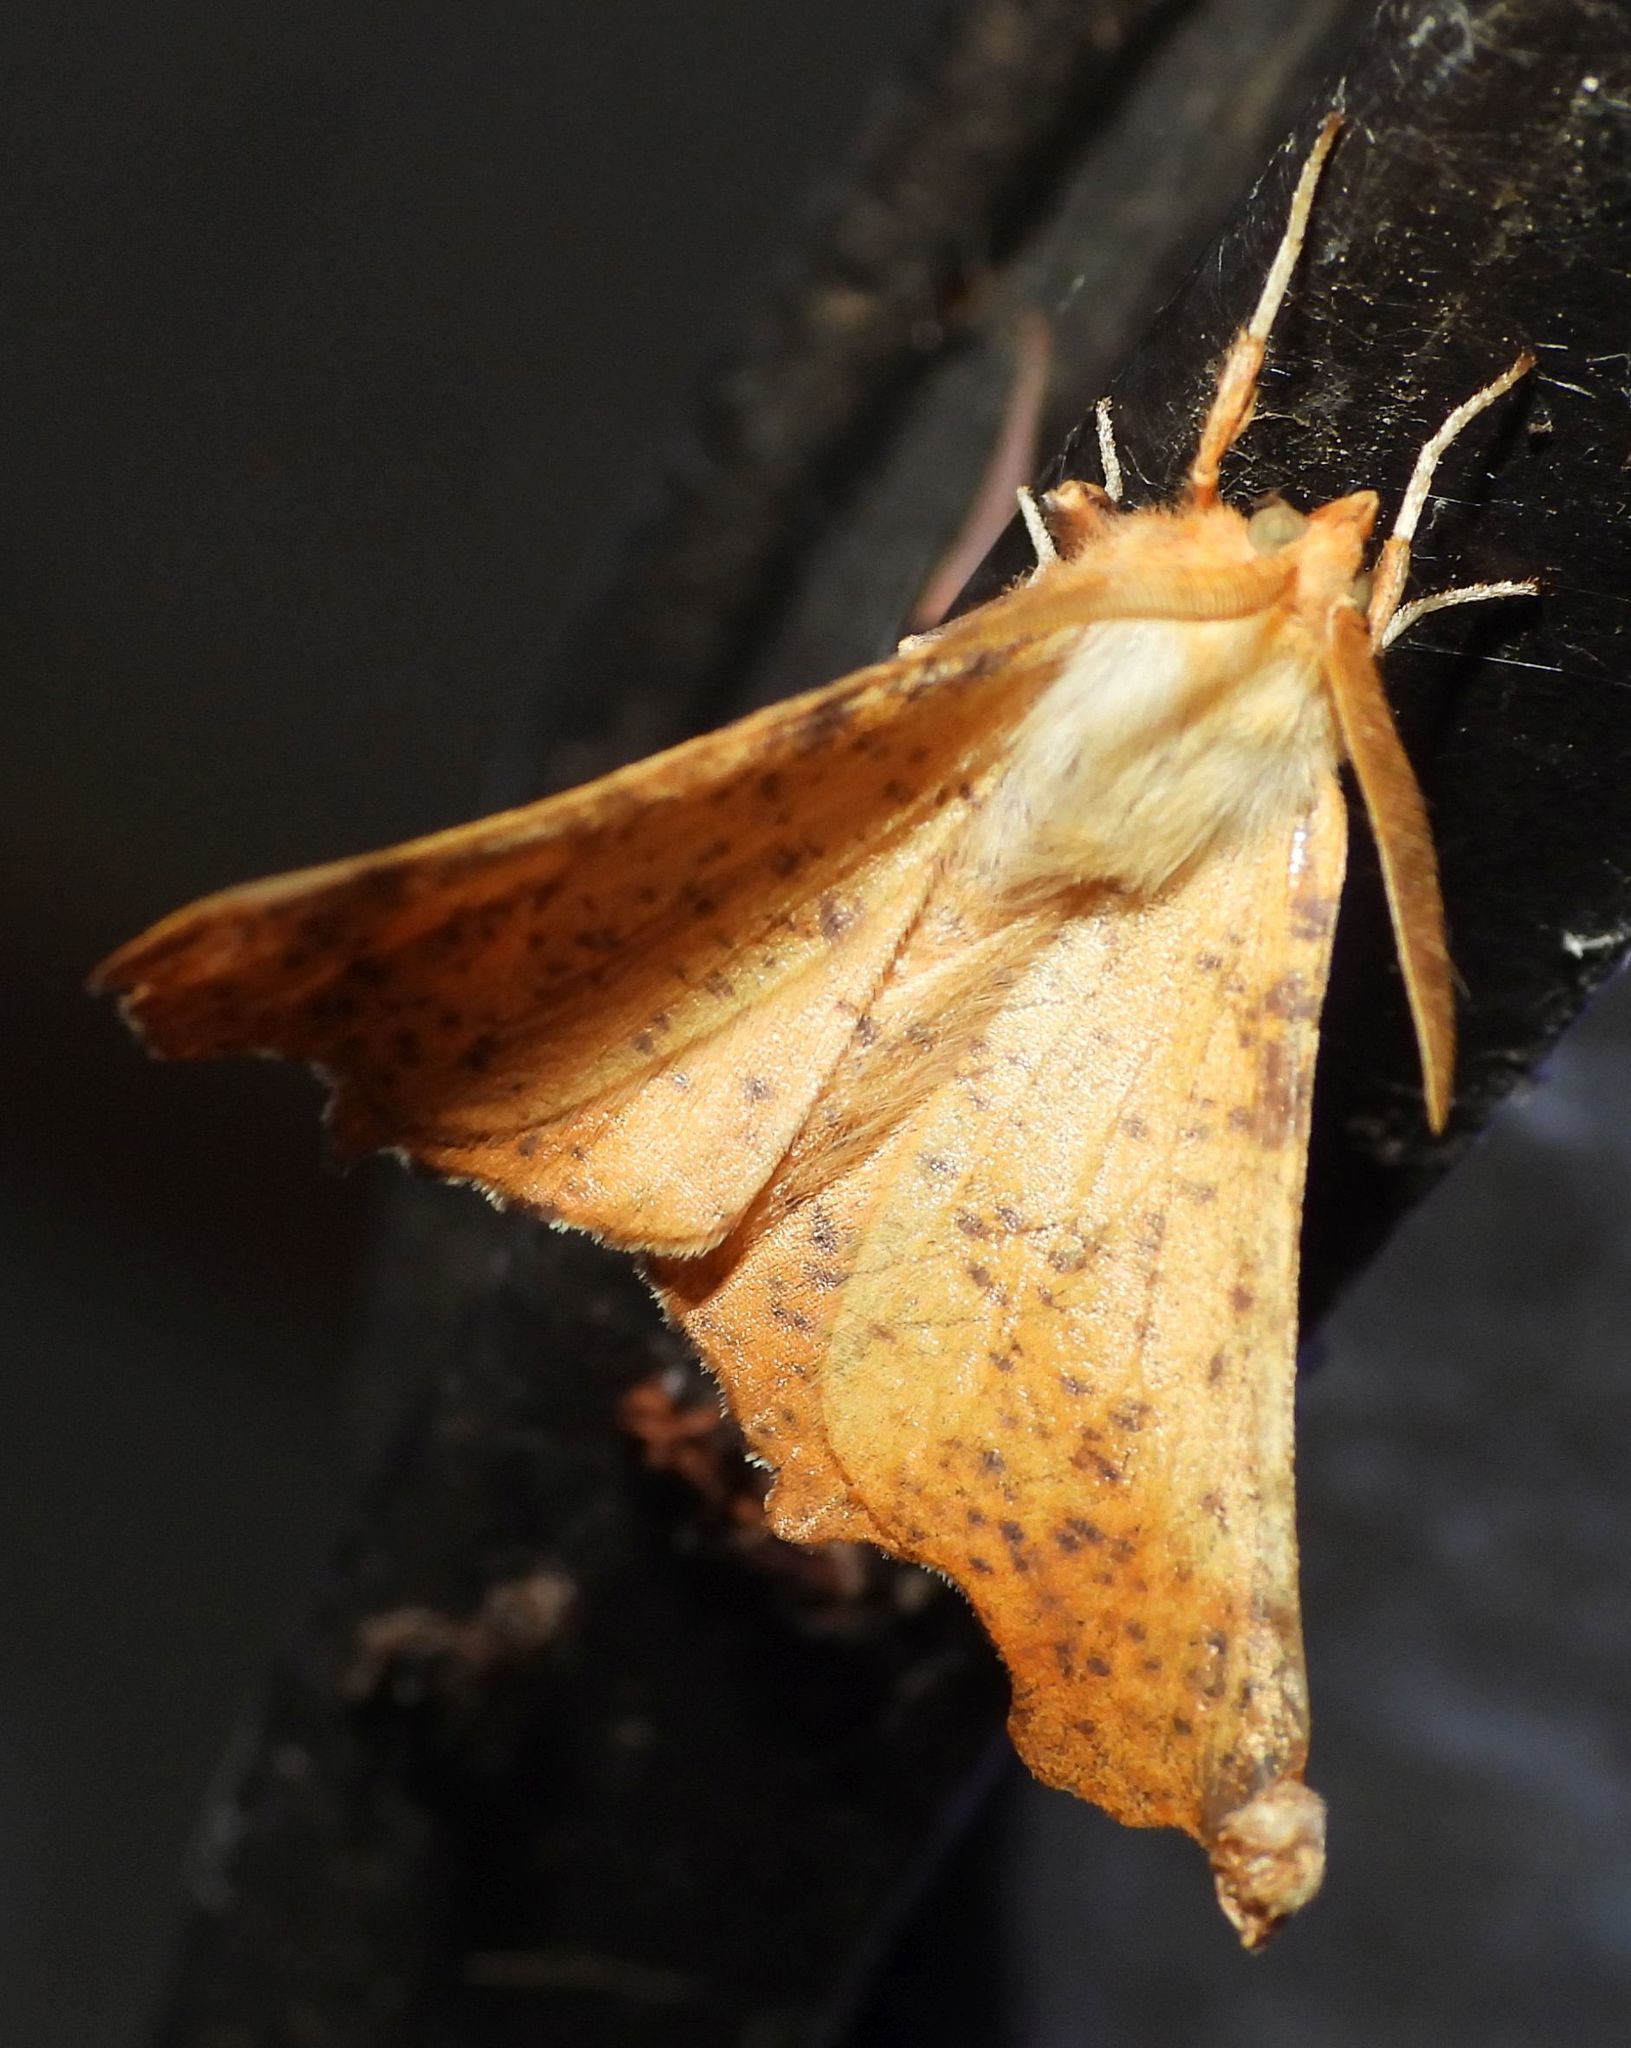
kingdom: Animalia
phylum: Arthropoda
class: Insecta
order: Lepidoptera
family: Geometridae
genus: Ennomos
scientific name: Ennomos magnaria
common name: Maple spanworm
